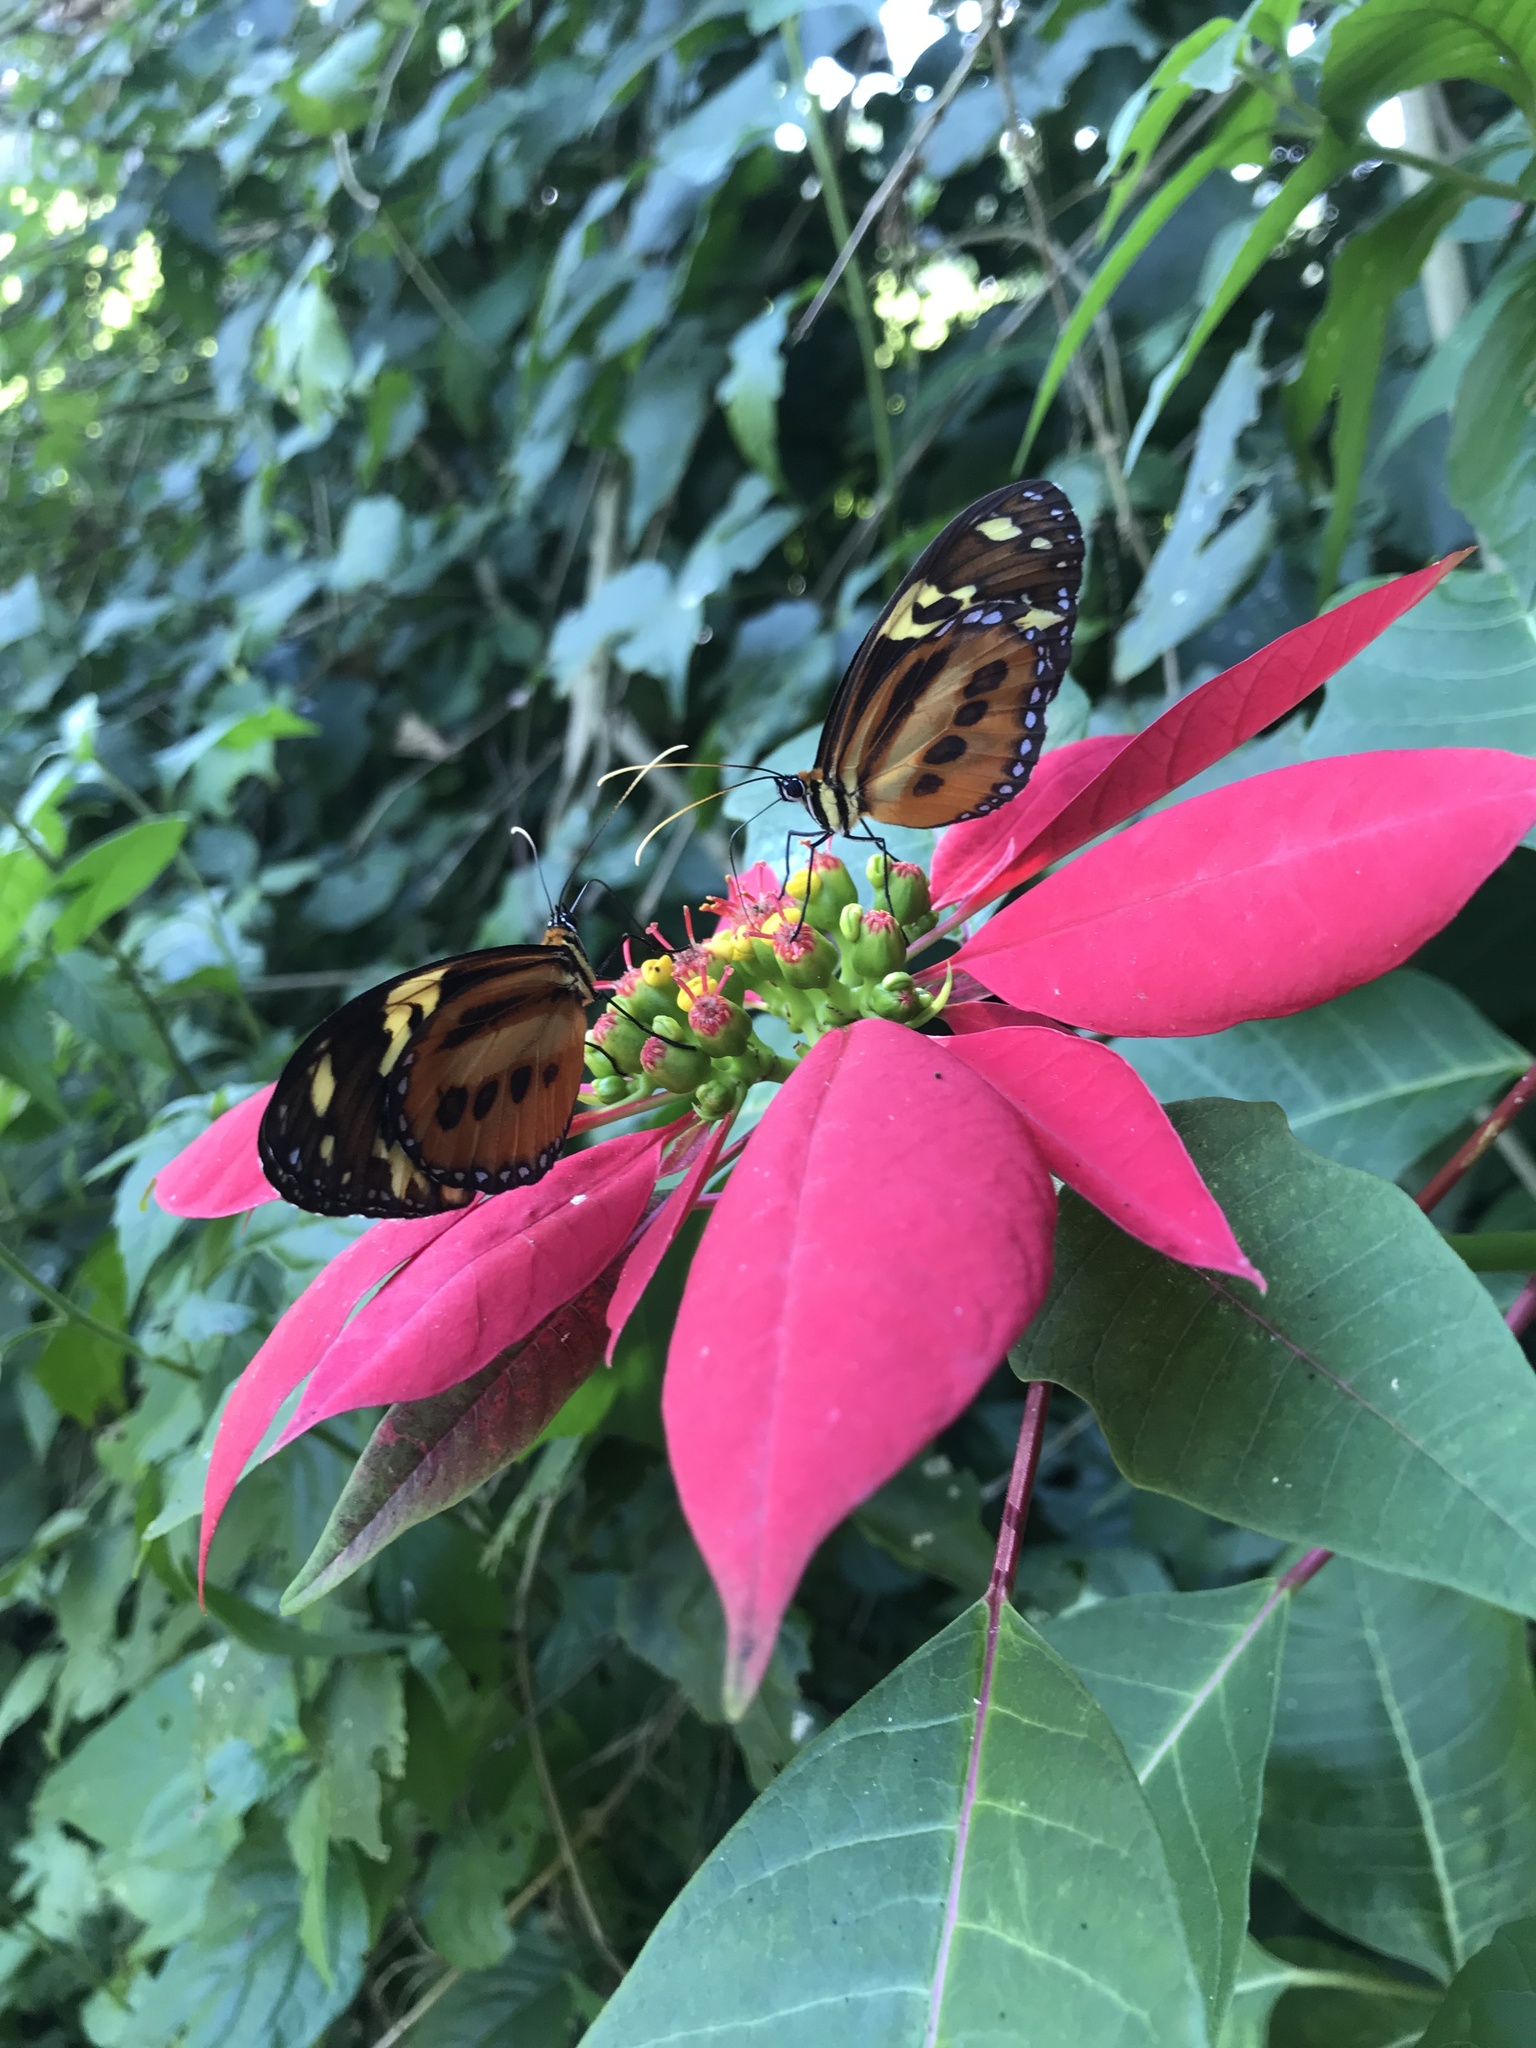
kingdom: Animalia
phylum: Arthropoda
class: Insecta
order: Lepidoptera
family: Nymphalidae
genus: Tithorea
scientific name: Tithorea harmonia
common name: Harmonia tigerwing
